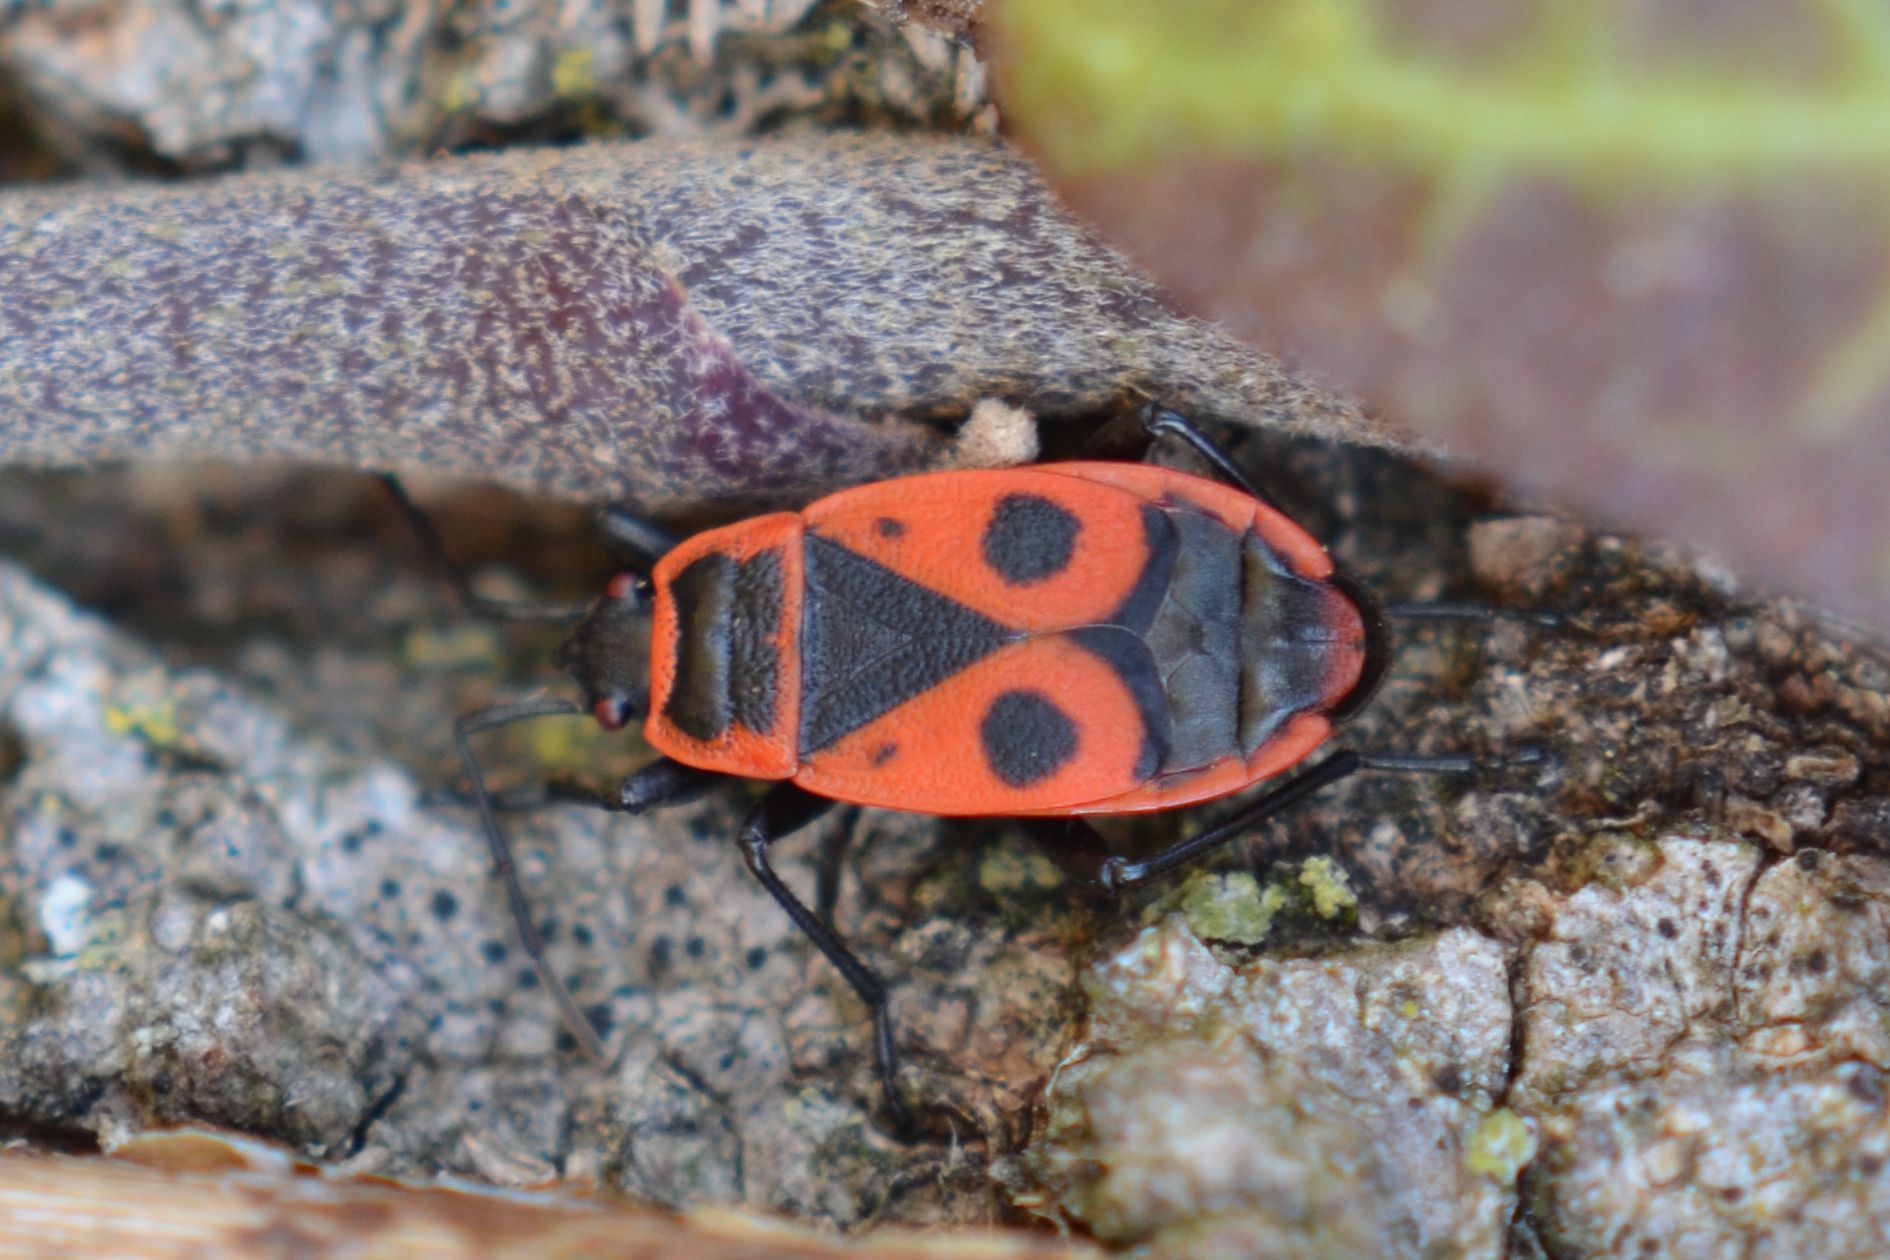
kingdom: Animalia
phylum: Arthropoda
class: Insecta
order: Hemiptera
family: Pyrrhocoridae
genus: Pyrrhocoris
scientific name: Pyrrhocoris apterus
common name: Firebug
